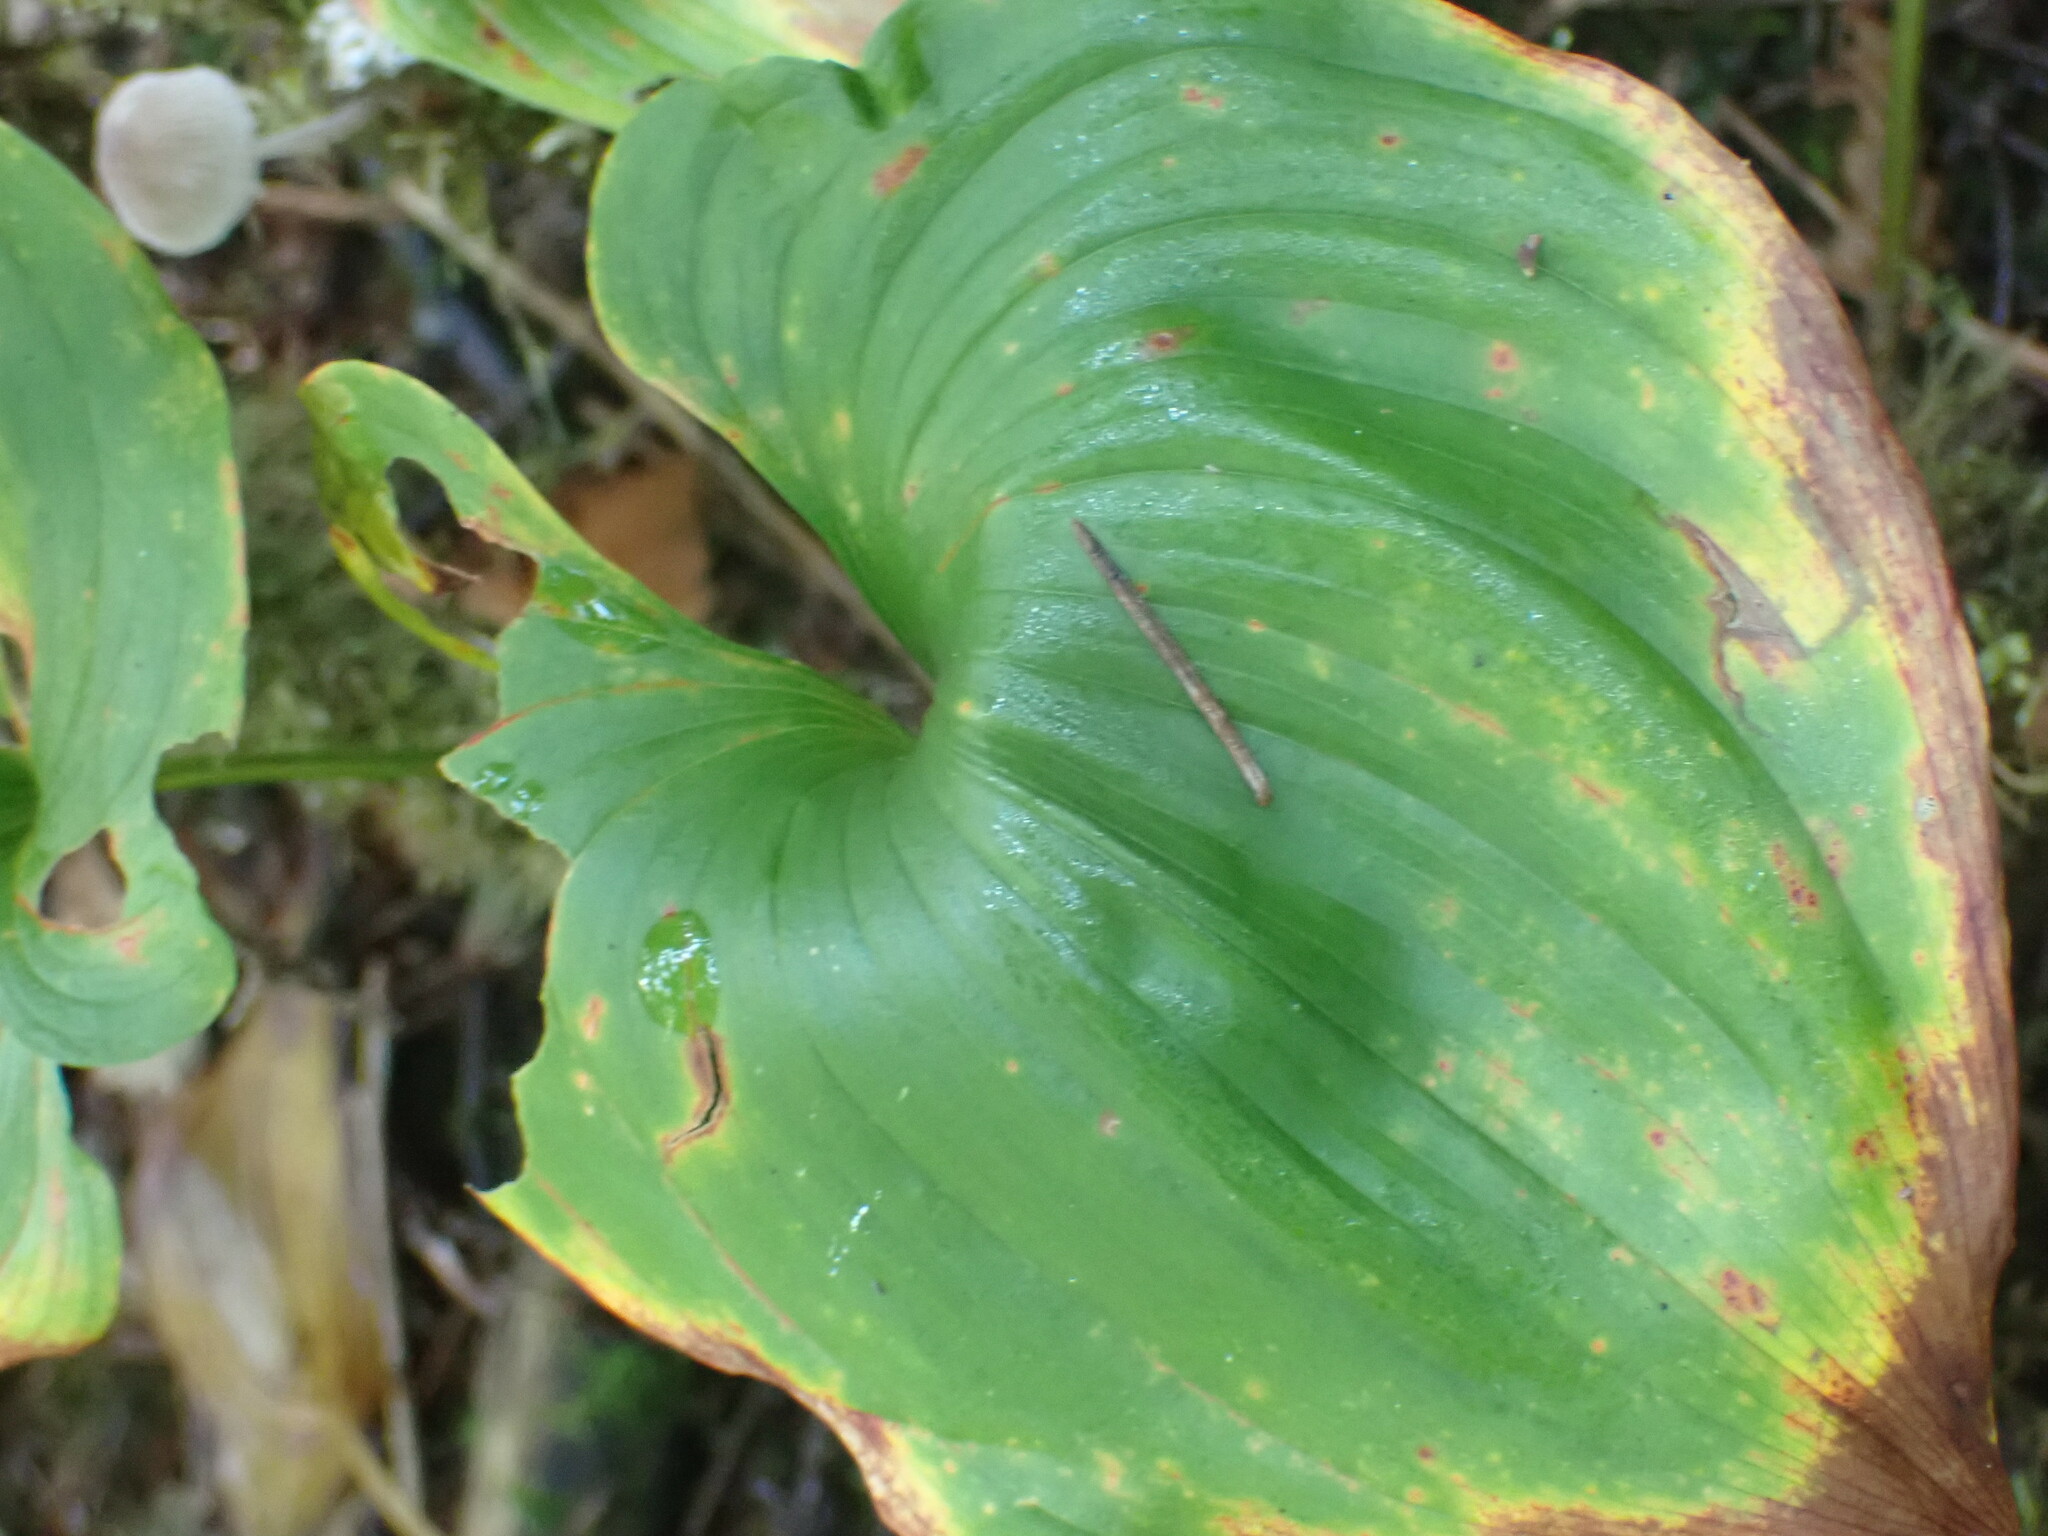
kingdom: Plantae
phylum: Tracheophyta
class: Liliopsida
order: Asparagales
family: Asparagaceae
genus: Maianthemum
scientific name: Maianthemum dilatatum
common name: False lily-of-the-valley
